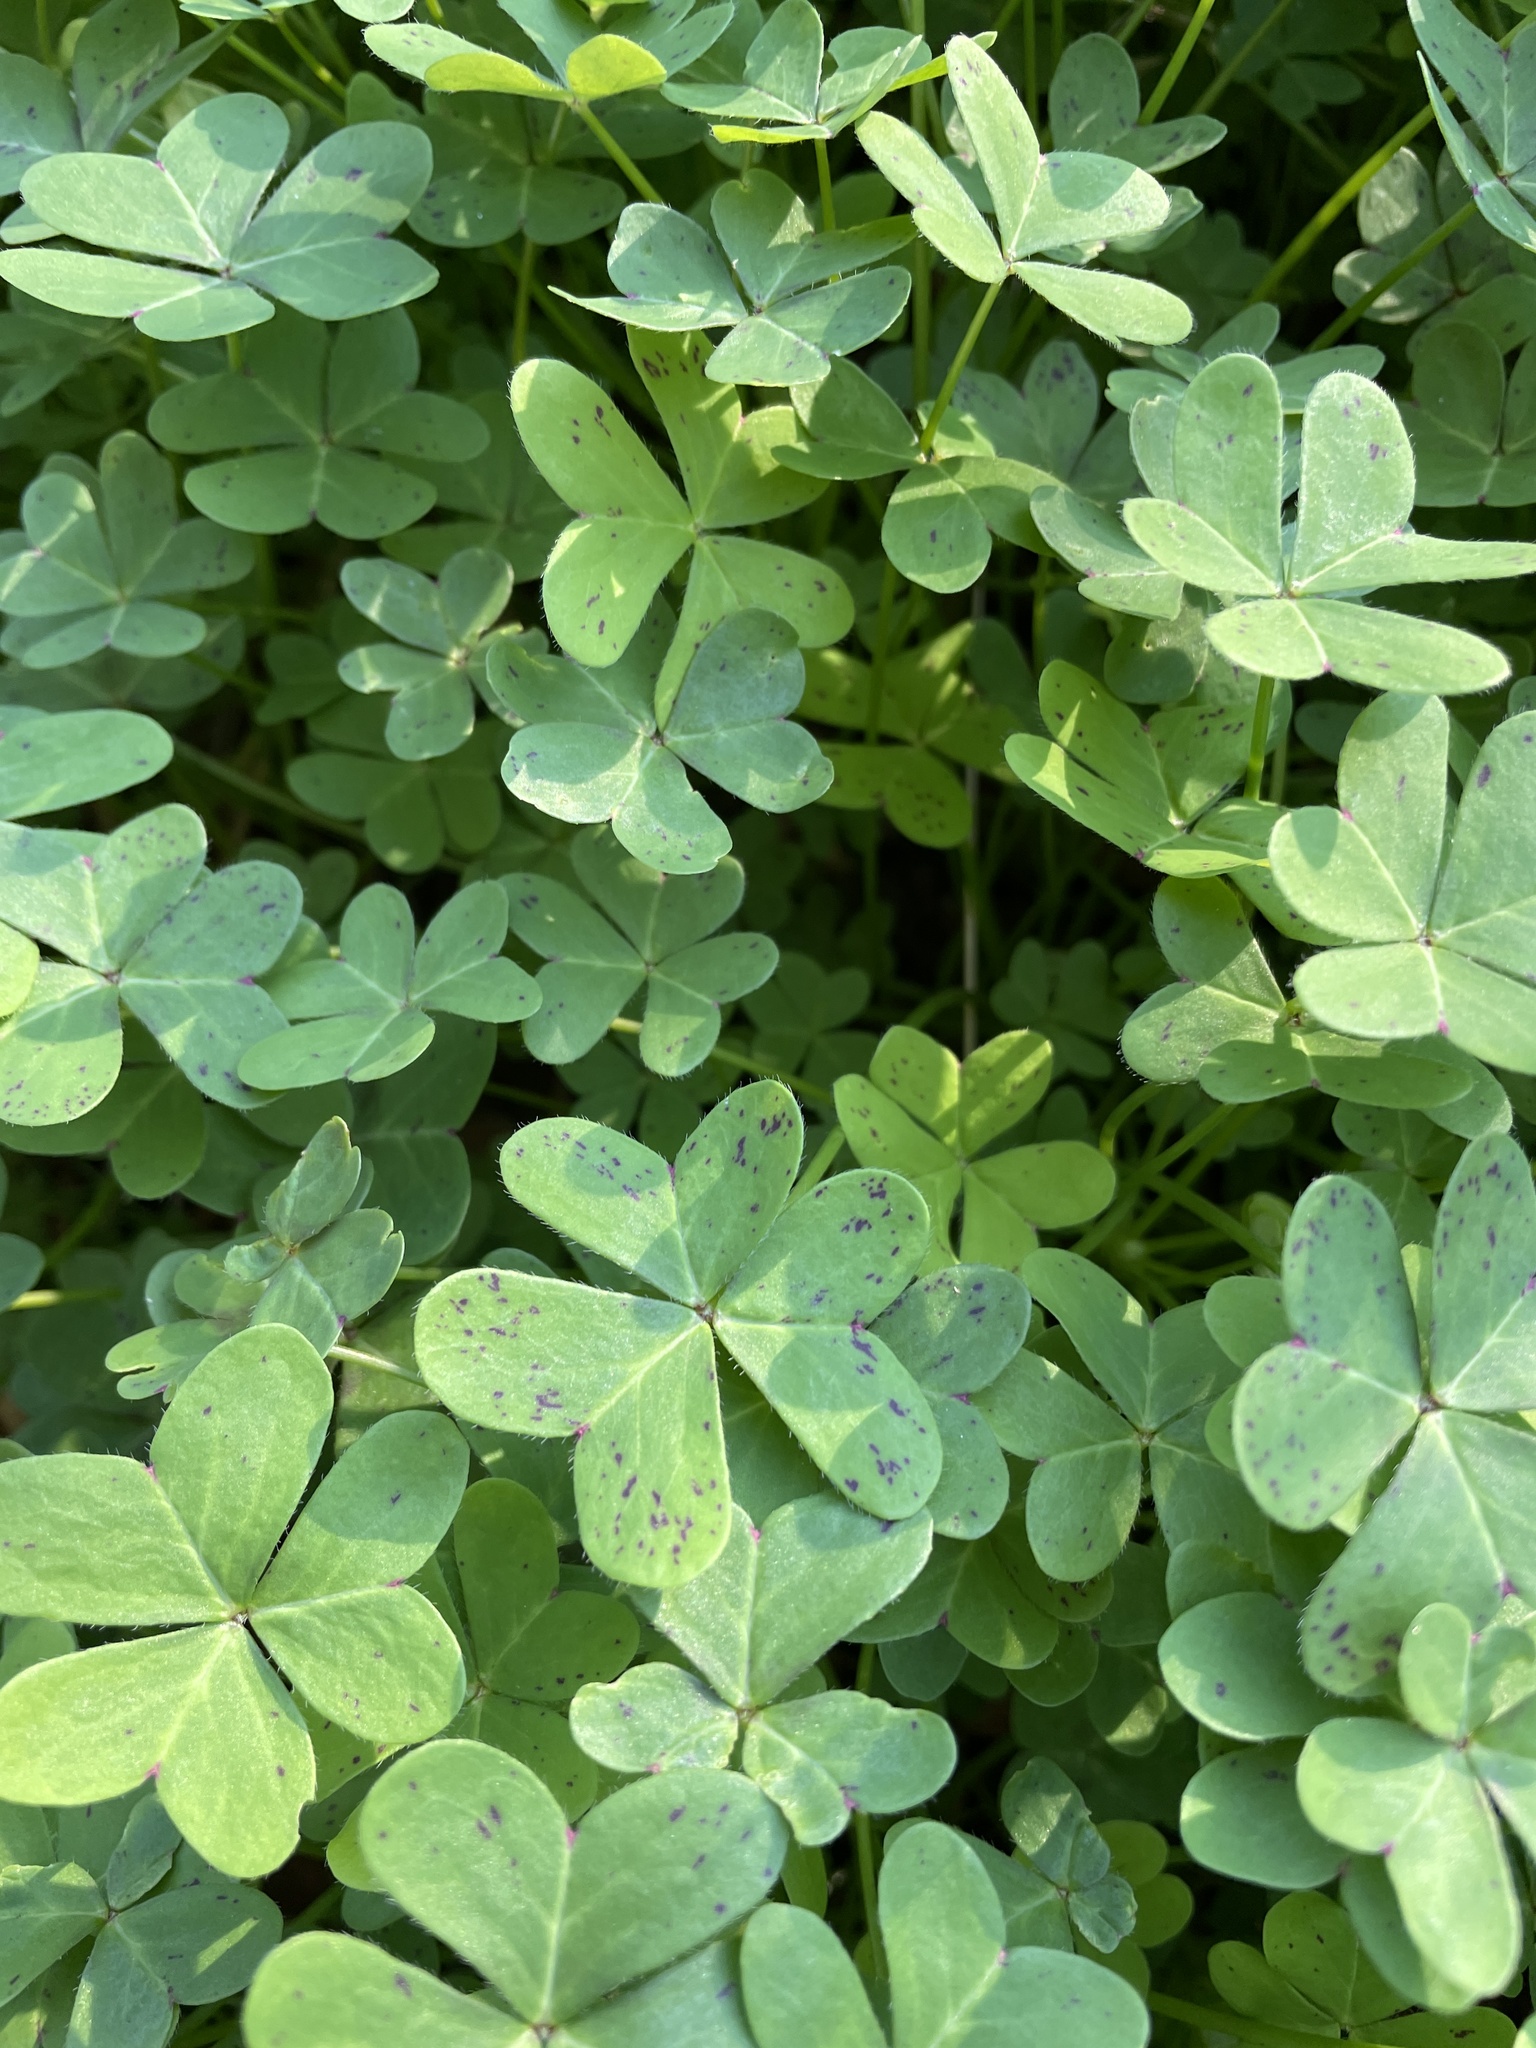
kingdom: Plantae
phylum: Tracheophyta
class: Magnoliopsida
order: Oxalidales
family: Oxalidaceae
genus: Oxalis
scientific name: Oxalis pes-caprae
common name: Bermuda-buttercup
